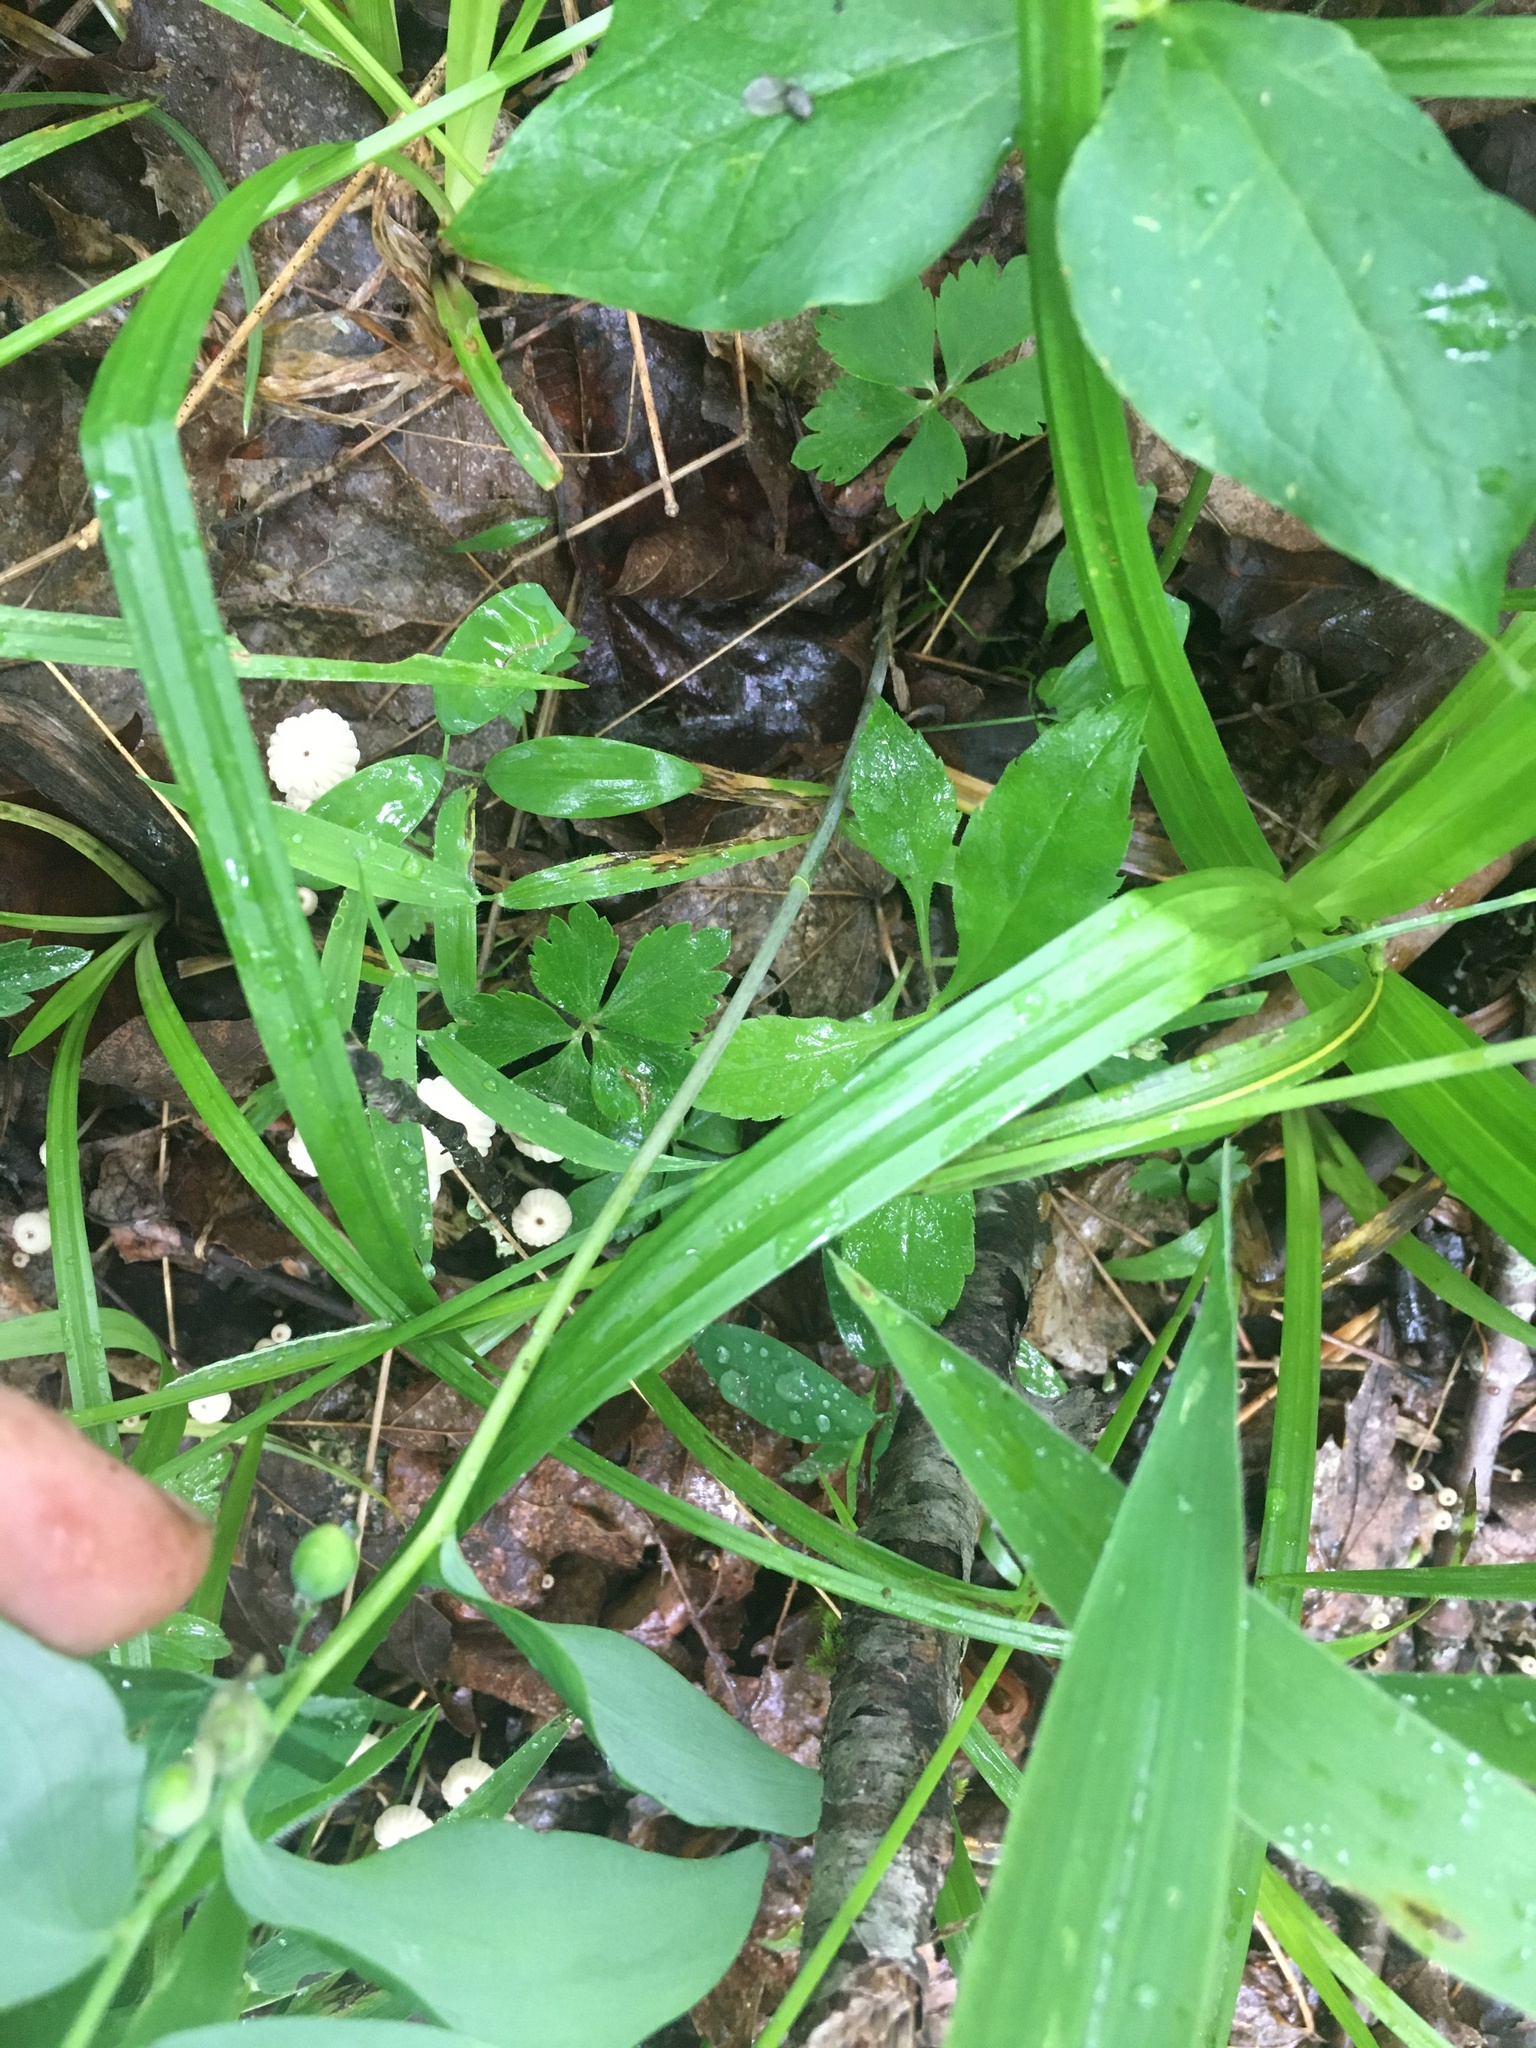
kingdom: Plantae
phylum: Tracheophyta
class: Liliopsida
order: Asparagales
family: Asparagaceae
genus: Polygonatum
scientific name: Polygonatum pubescens
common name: Downy solomon's seal
